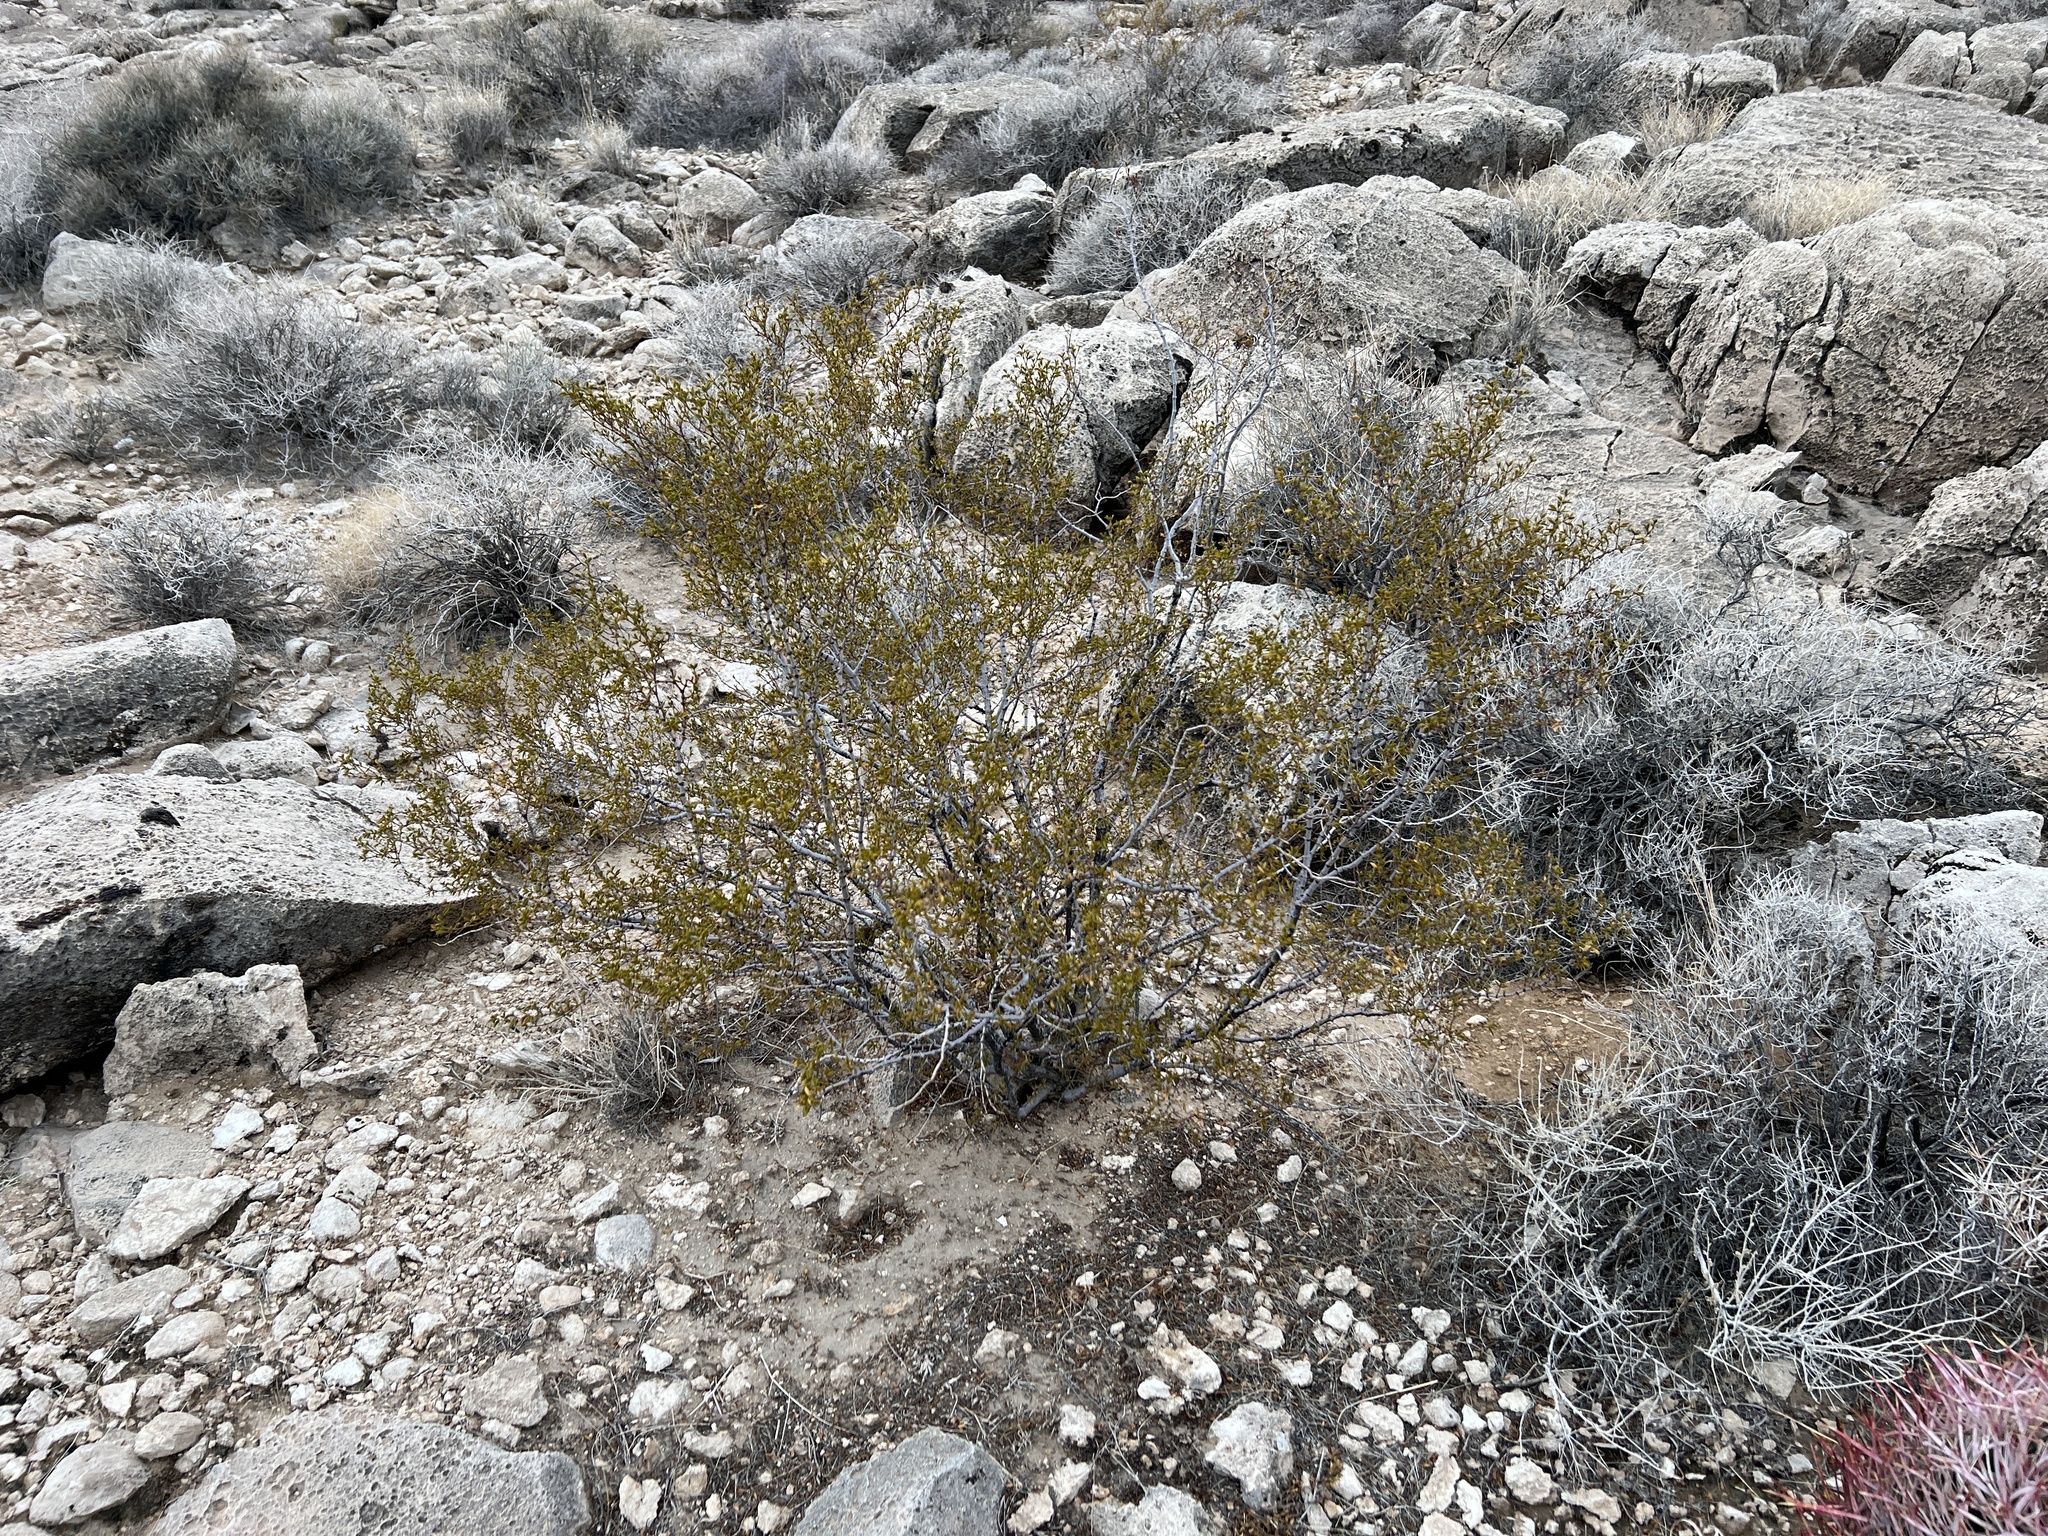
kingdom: Plantae
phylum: Tracheophyta
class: Magnoliopsida
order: Zygophyllales
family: Zygophyllaceae
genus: Larrea
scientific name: Larrea tridentata
